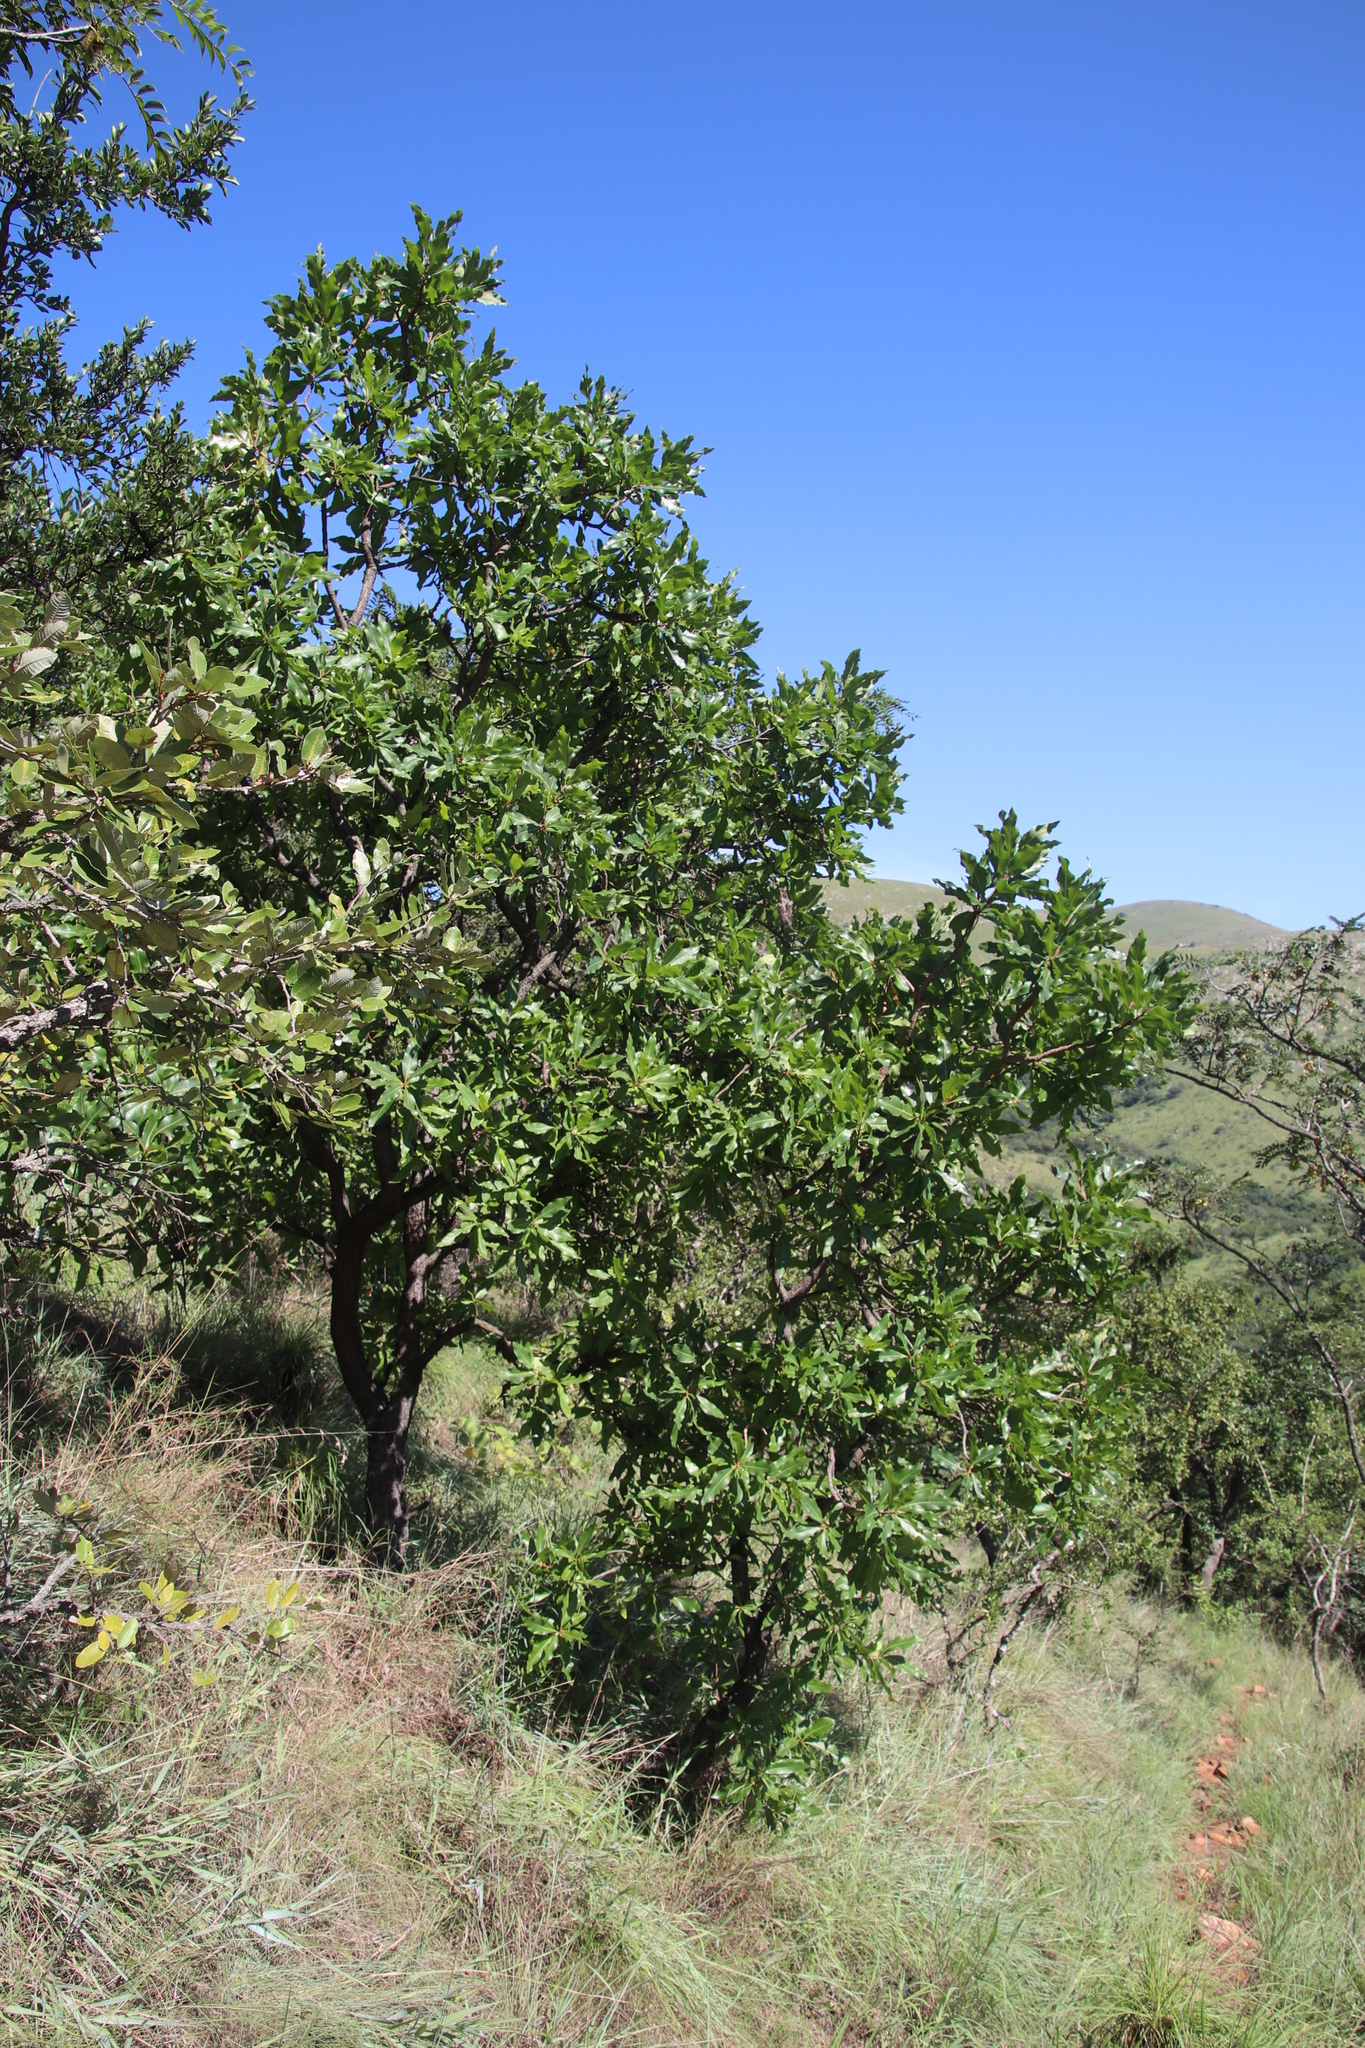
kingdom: Plantae
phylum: Tracheophyta
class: Magnoliopsida
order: Proteales
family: Proteaceae
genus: Faurea
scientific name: Faurea rochetiana
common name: Broad-leaved beech
